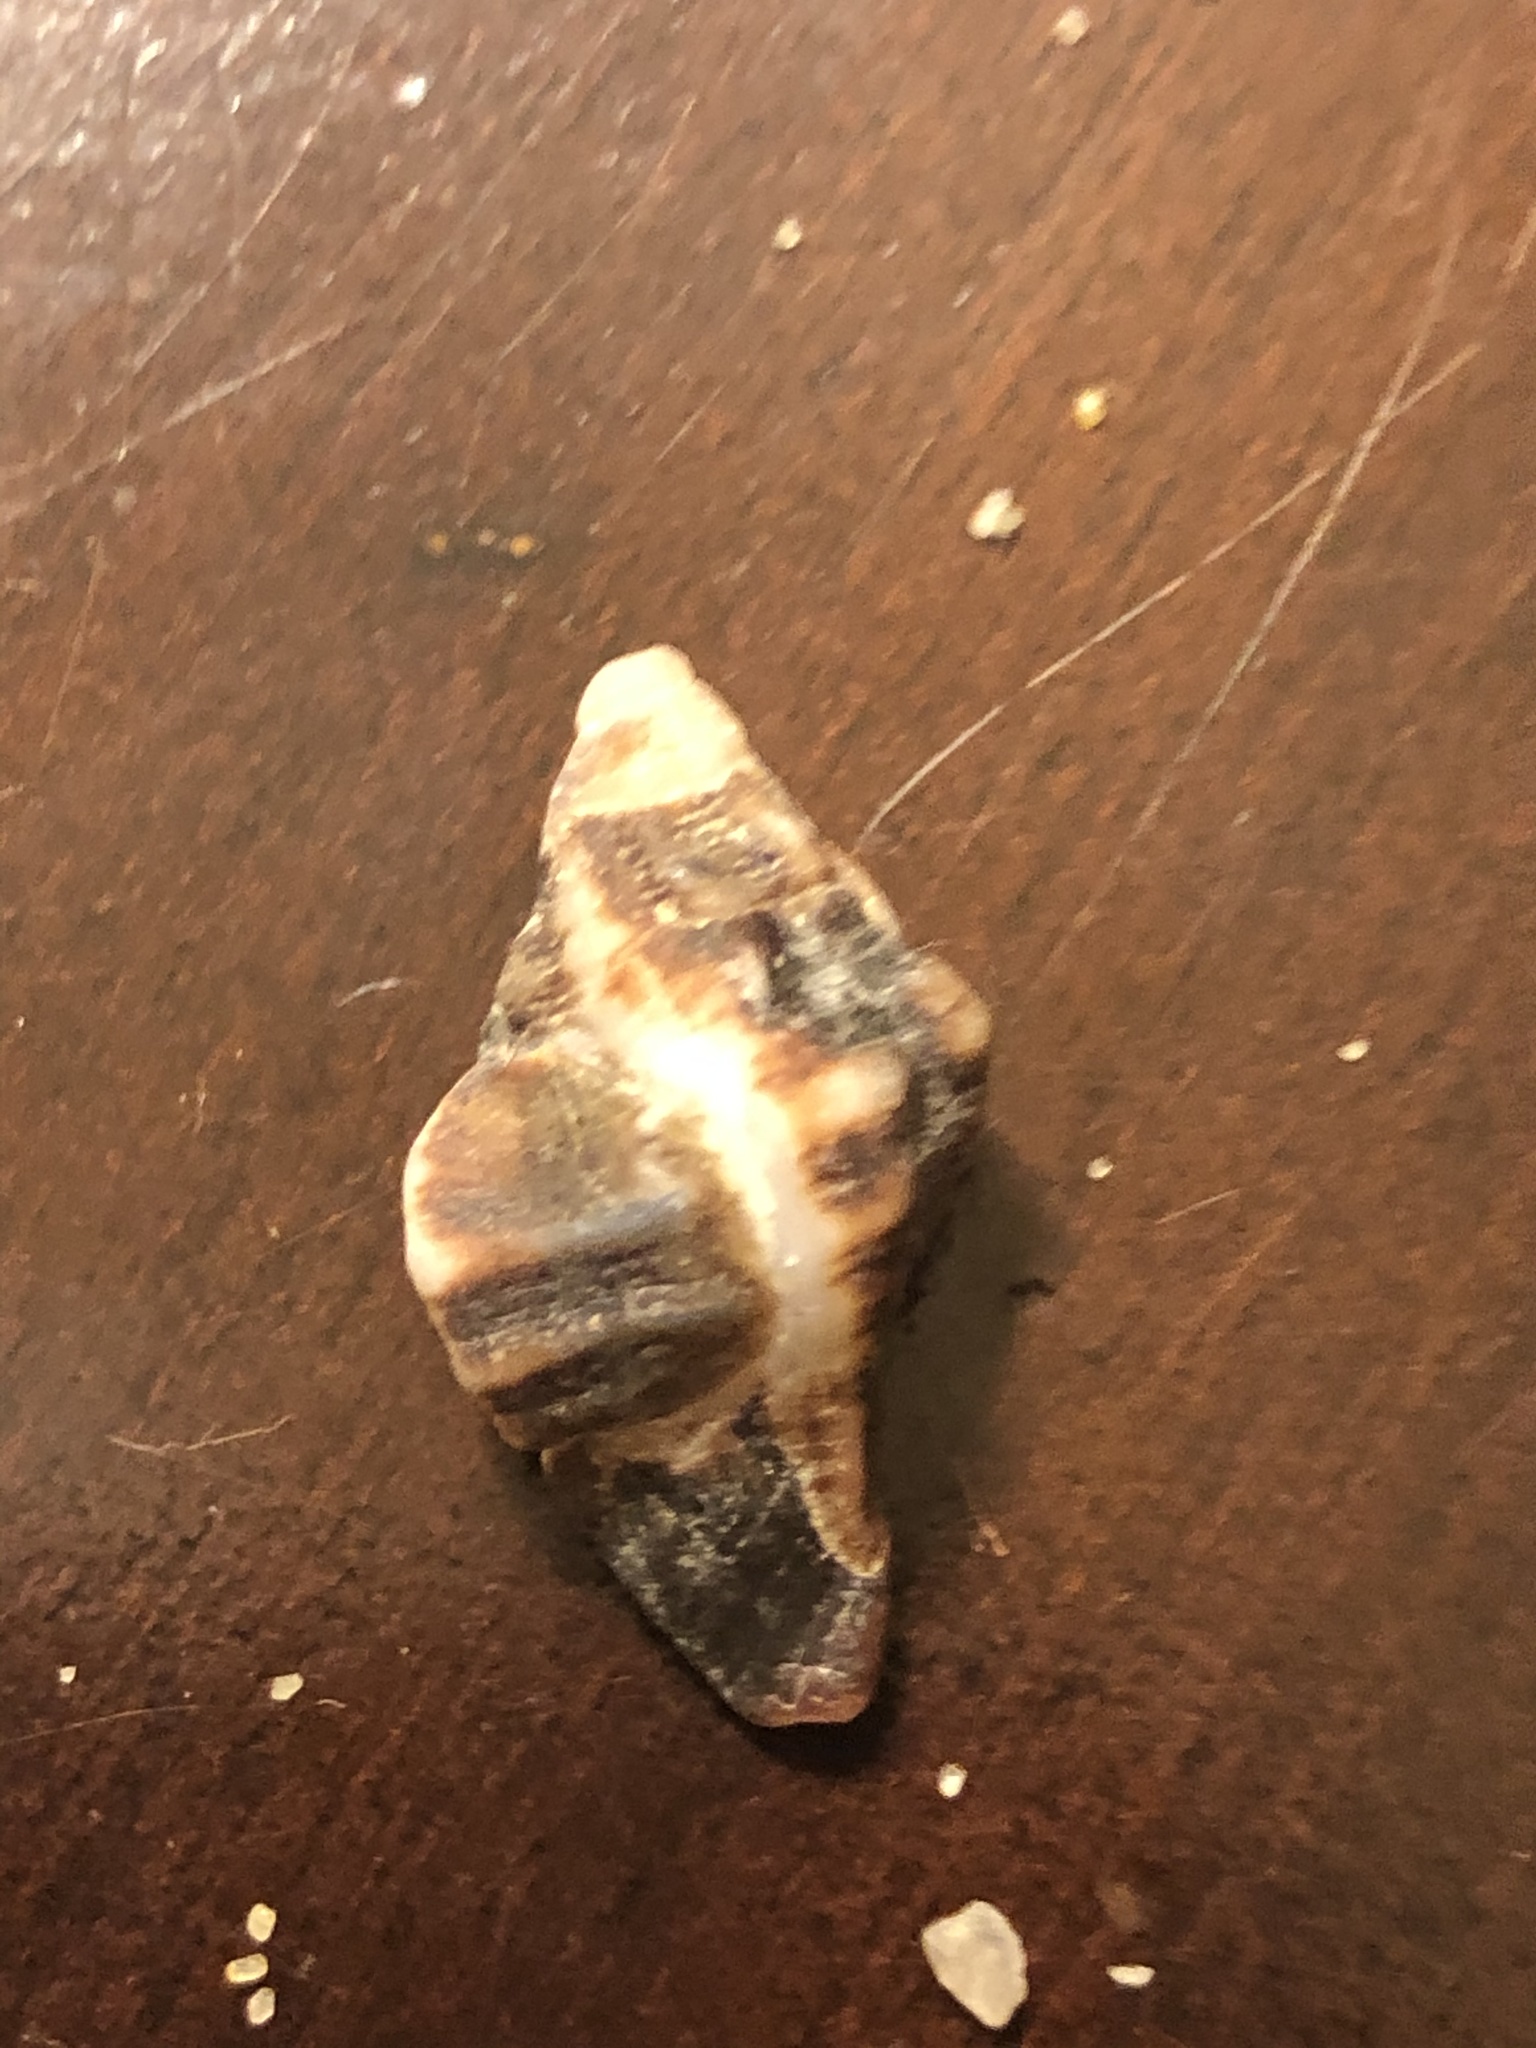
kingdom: Animalia
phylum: Mollusca
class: Gastropoda
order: Neogastropoda
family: Muricidae
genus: Ceratostoma
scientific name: Ceratostoma nuttalli
